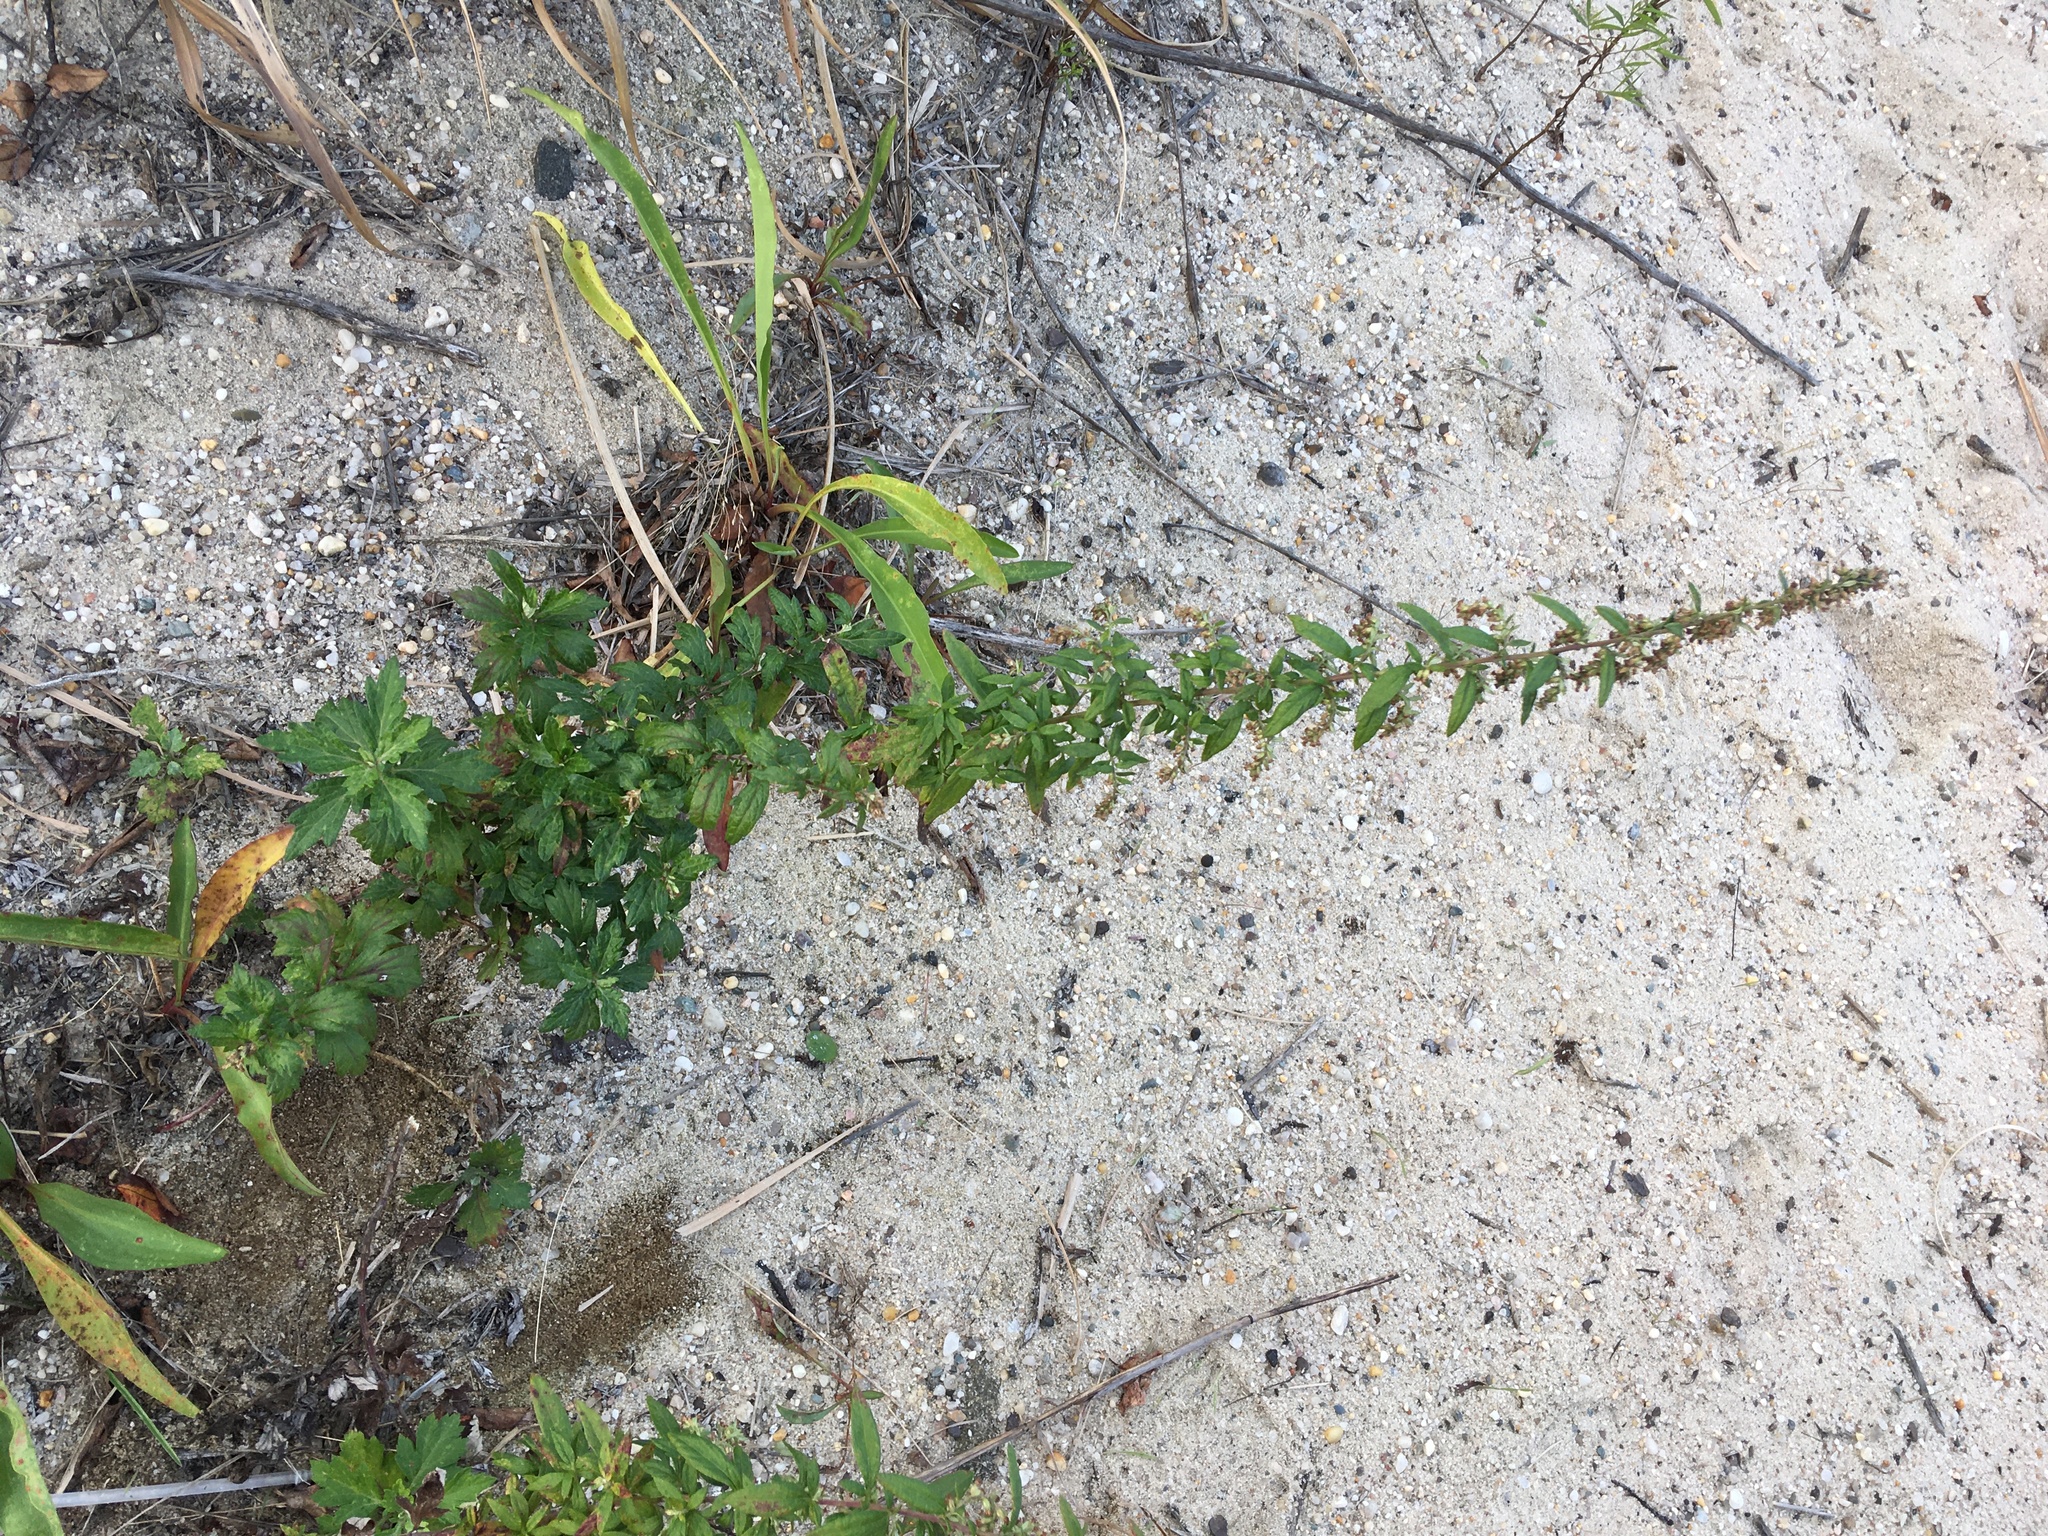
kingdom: Plantae
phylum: Tracheophyta
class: Magnoliopsida
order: Asterales
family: Asteraceae
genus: Artemisia
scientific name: Artemisia vulgaris
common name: Mugwort
